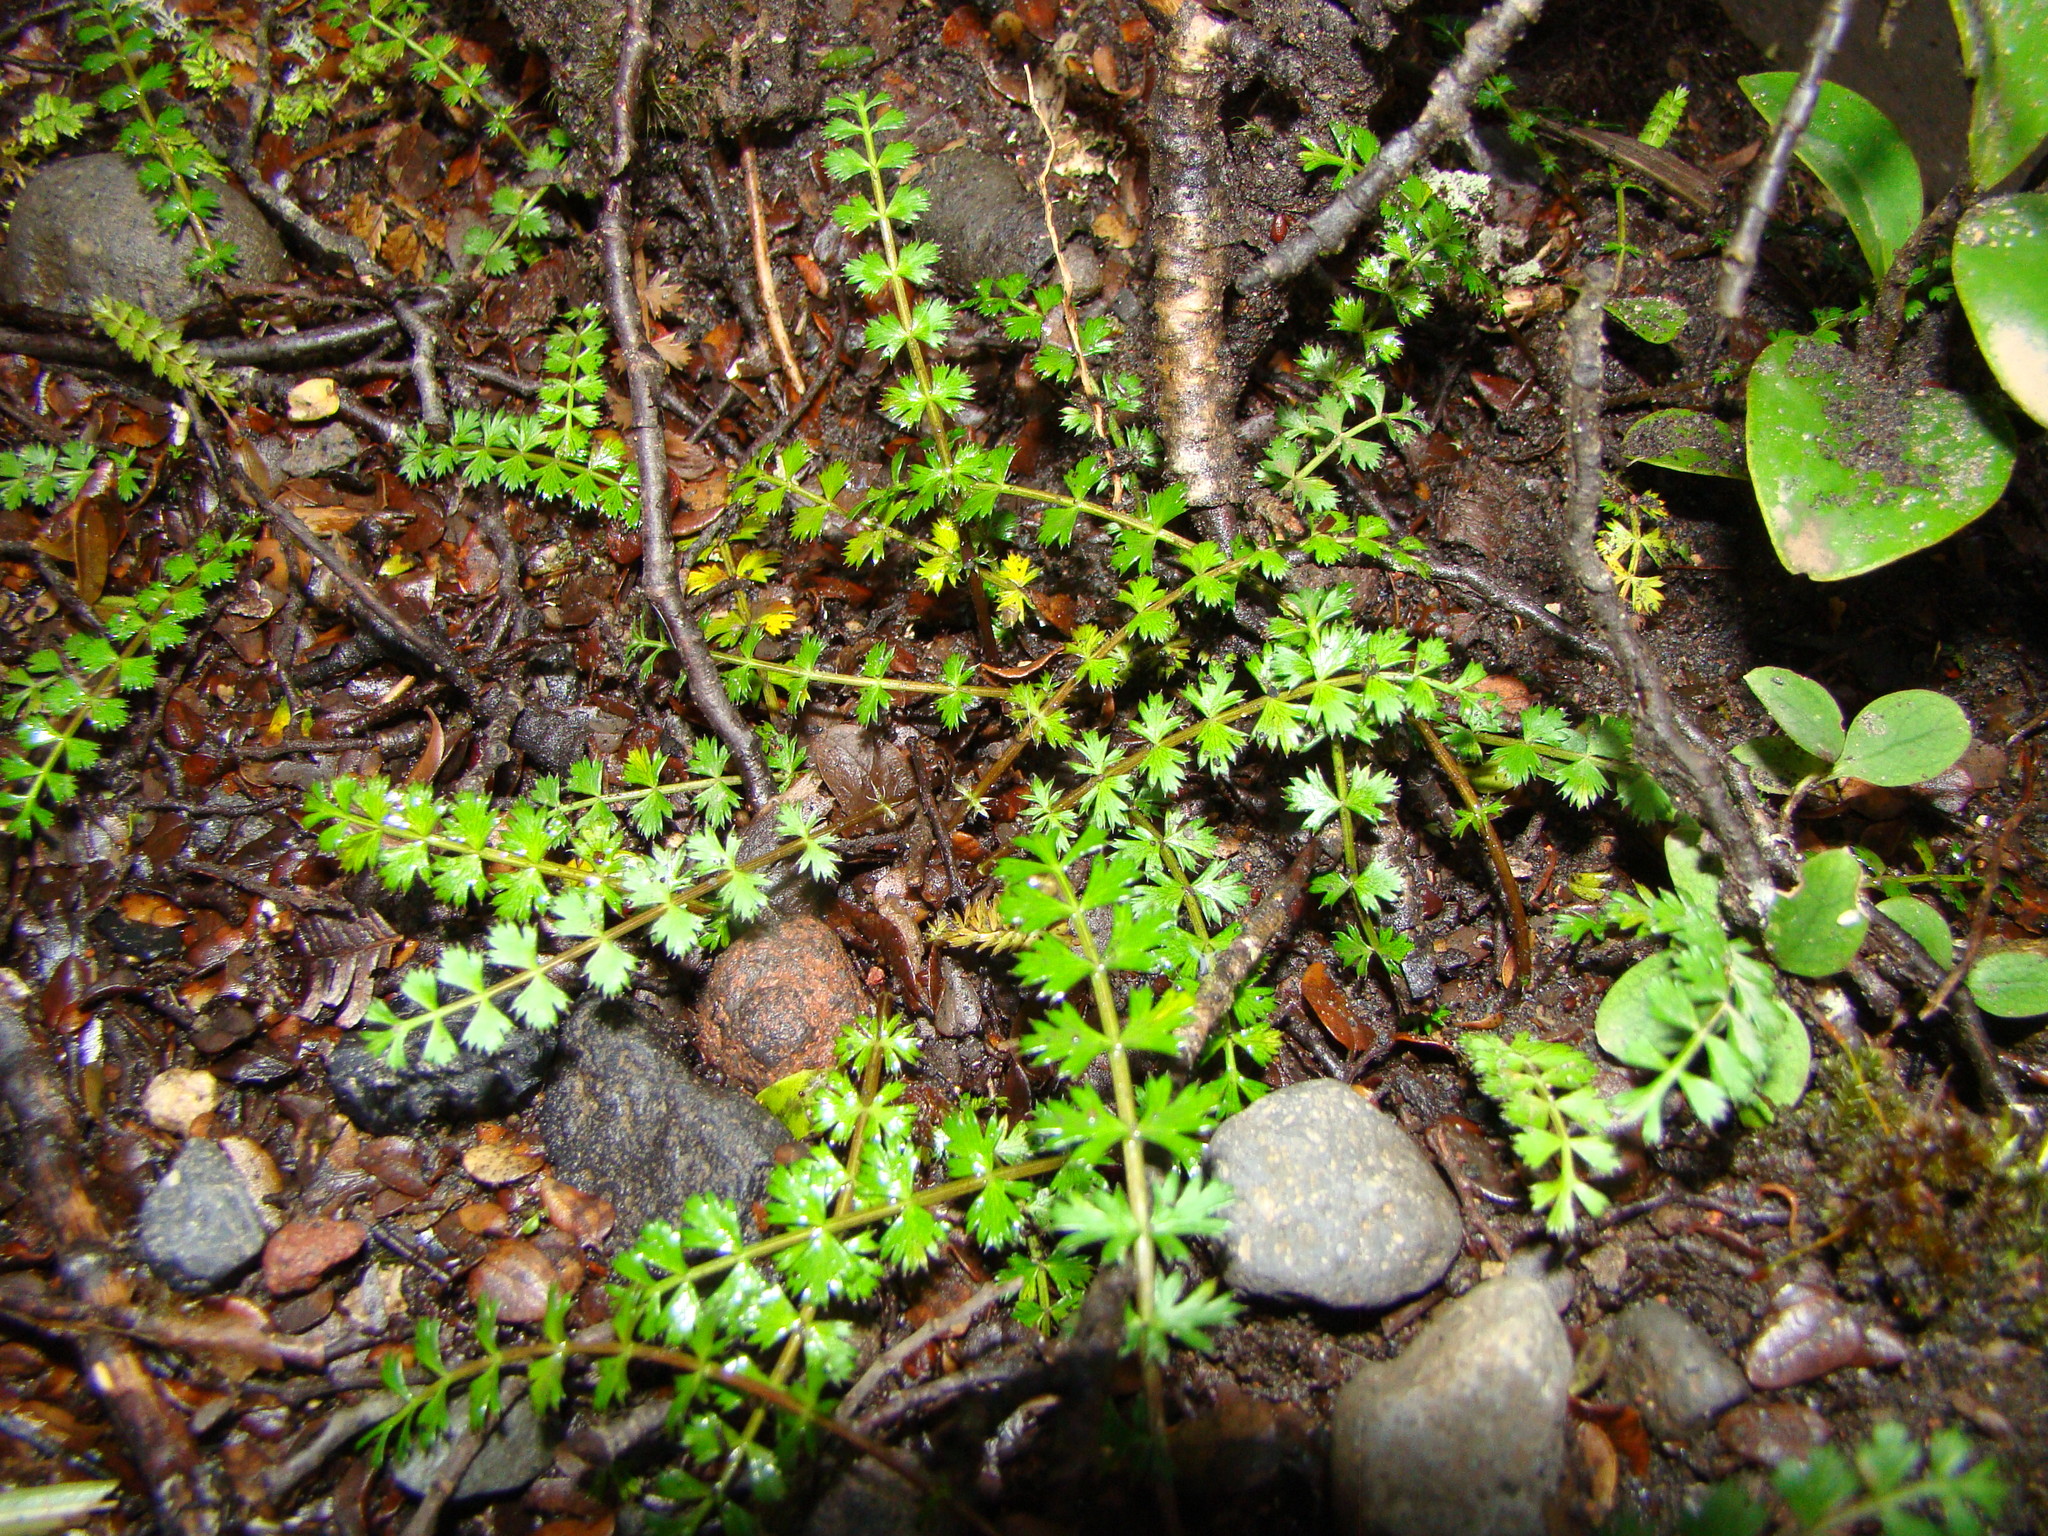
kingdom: Plantae
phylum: Tracheophyta
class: Magnoliopsida
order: Apiales
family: Apiaceae
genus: Anisotome
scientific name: Anisotome aromatica
